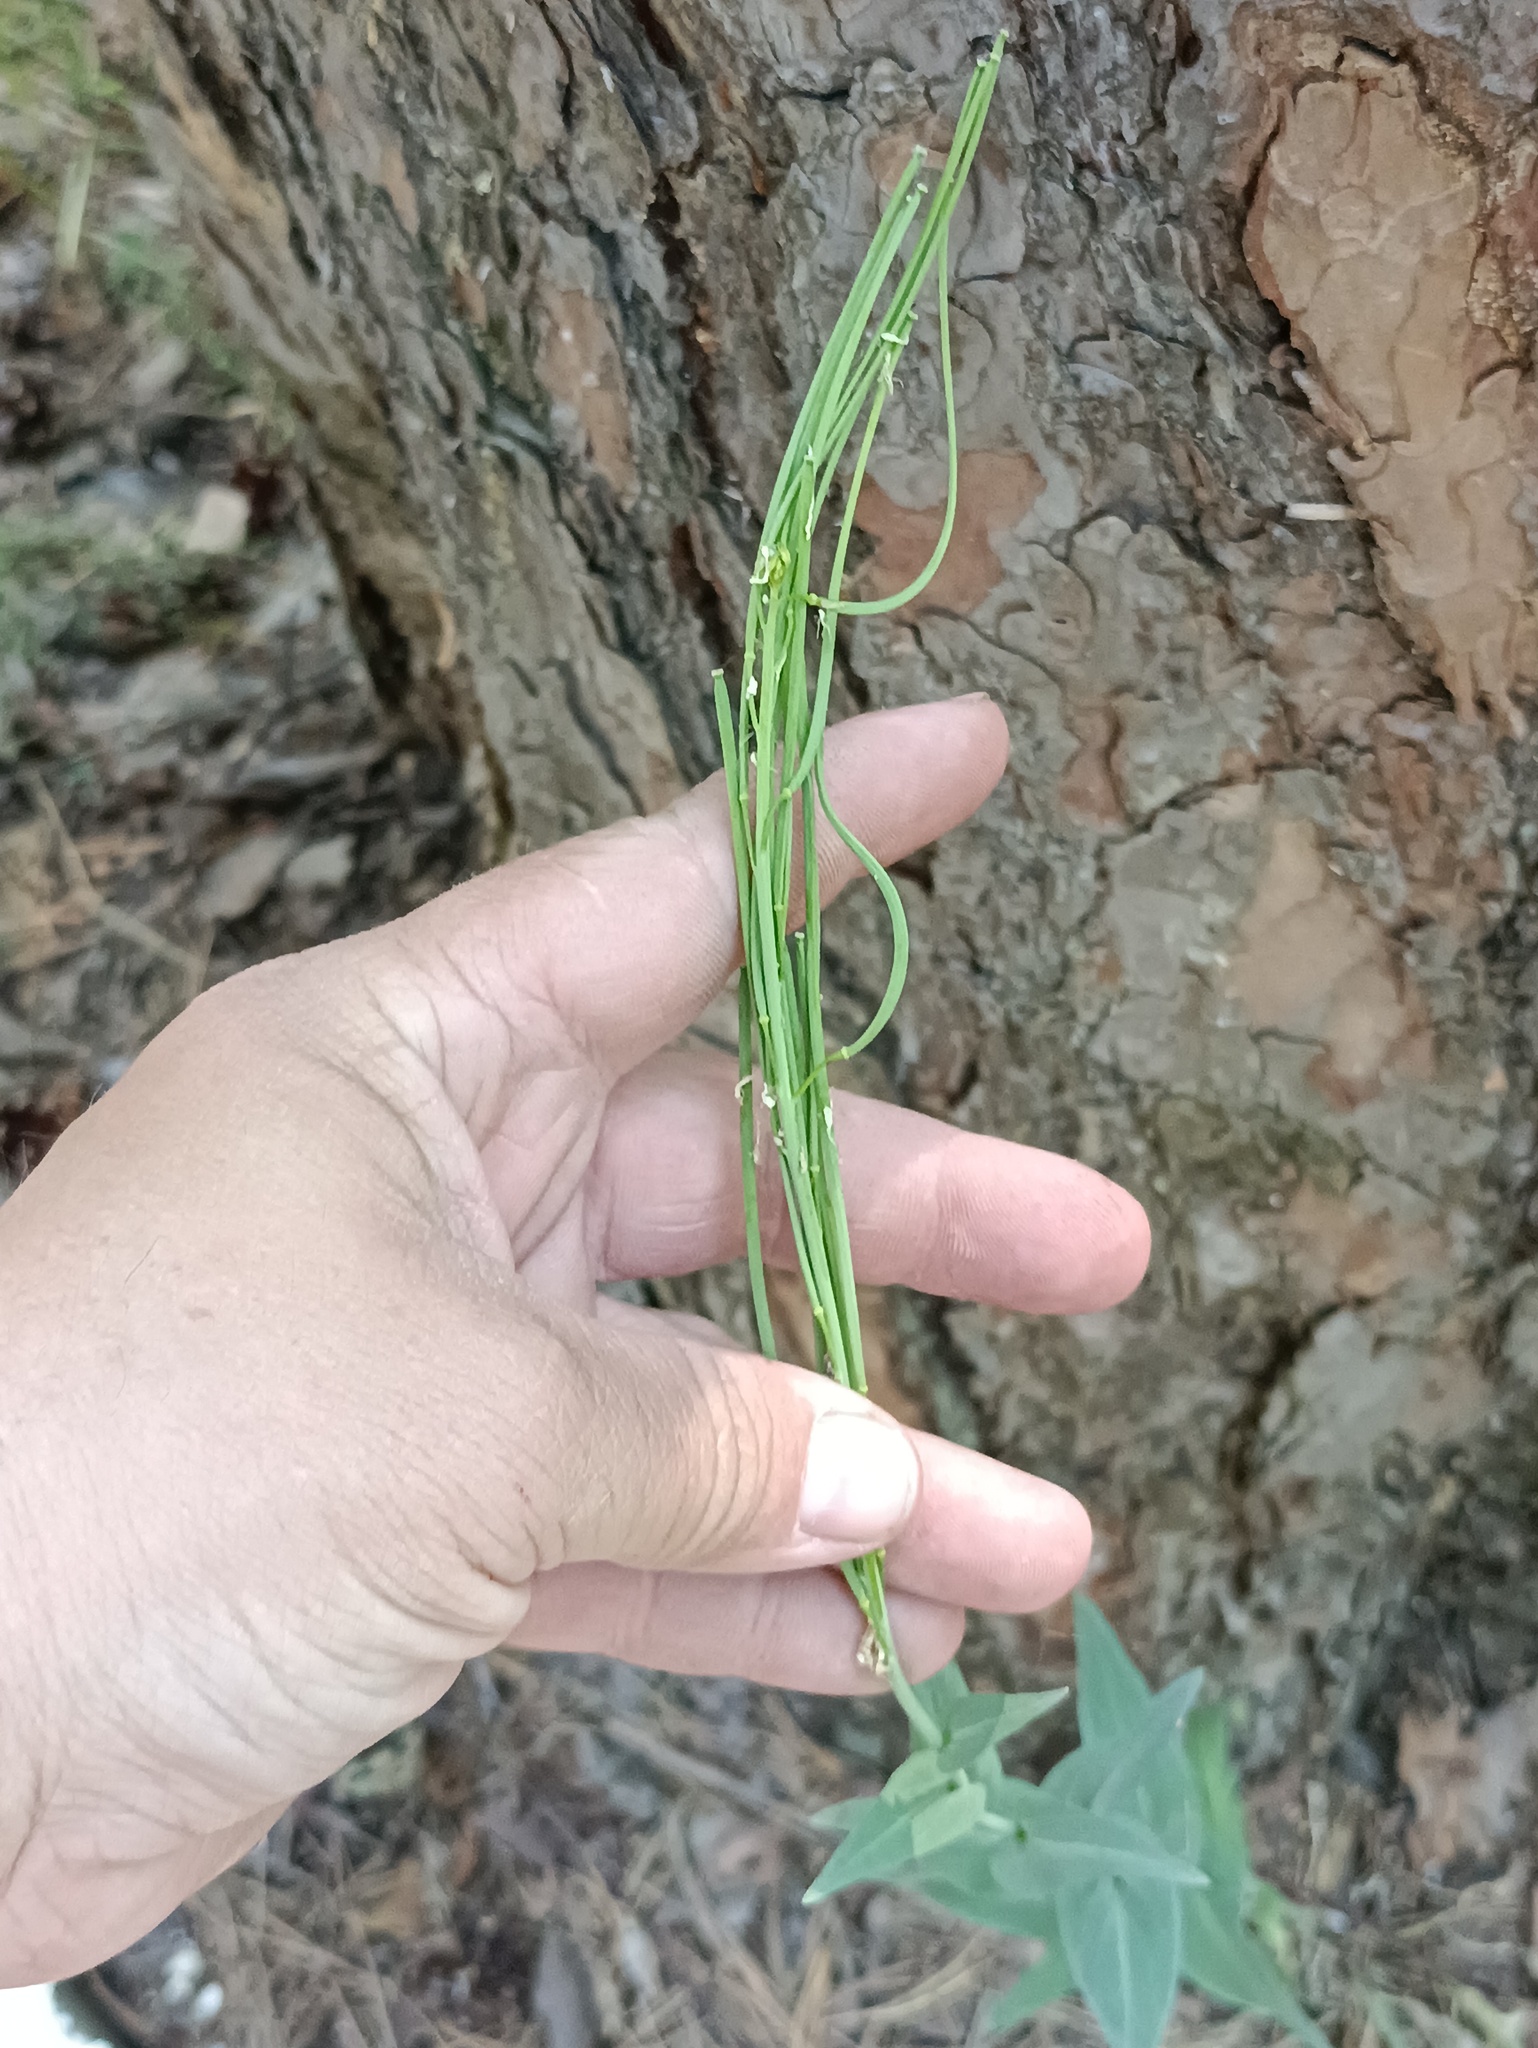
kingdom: Plantae
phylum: Tracheophyta
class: Magnoliopsida
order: Brassicales
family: Brassicaceae
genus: Turritis
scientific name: Turritis glabra
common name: Tower rockcress
